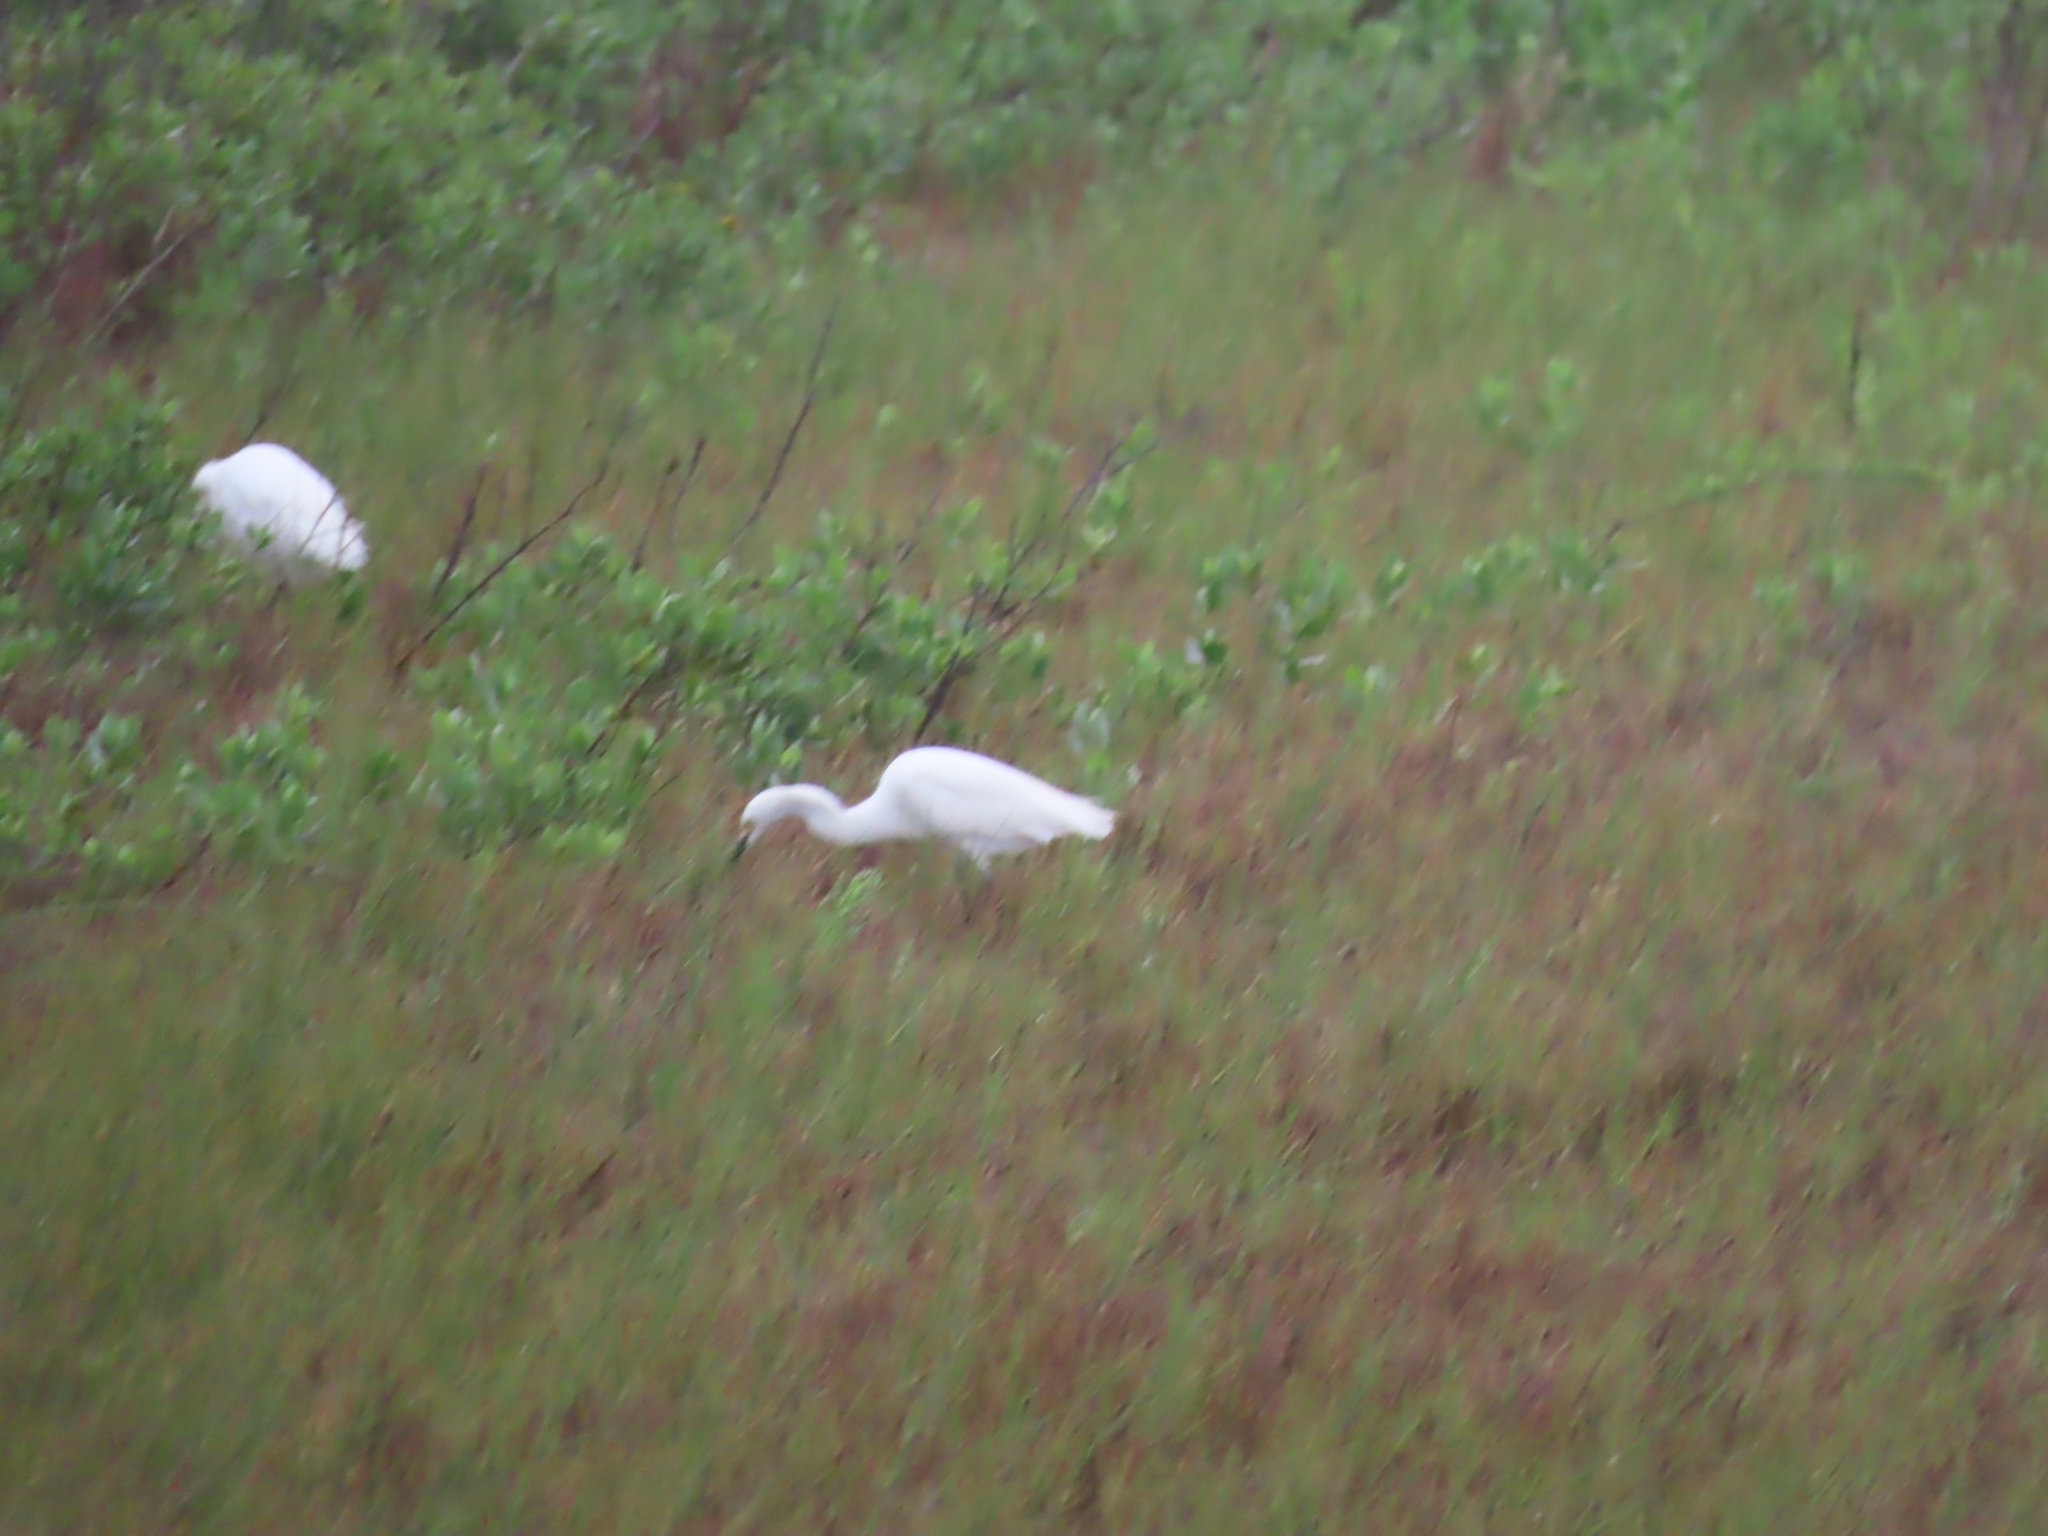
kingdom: Animalia
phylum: Chordata
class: Aves
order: Pelecaniformes
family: Ardeidae
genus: Egretta
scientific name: Egretta thula
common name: Snowy egret
